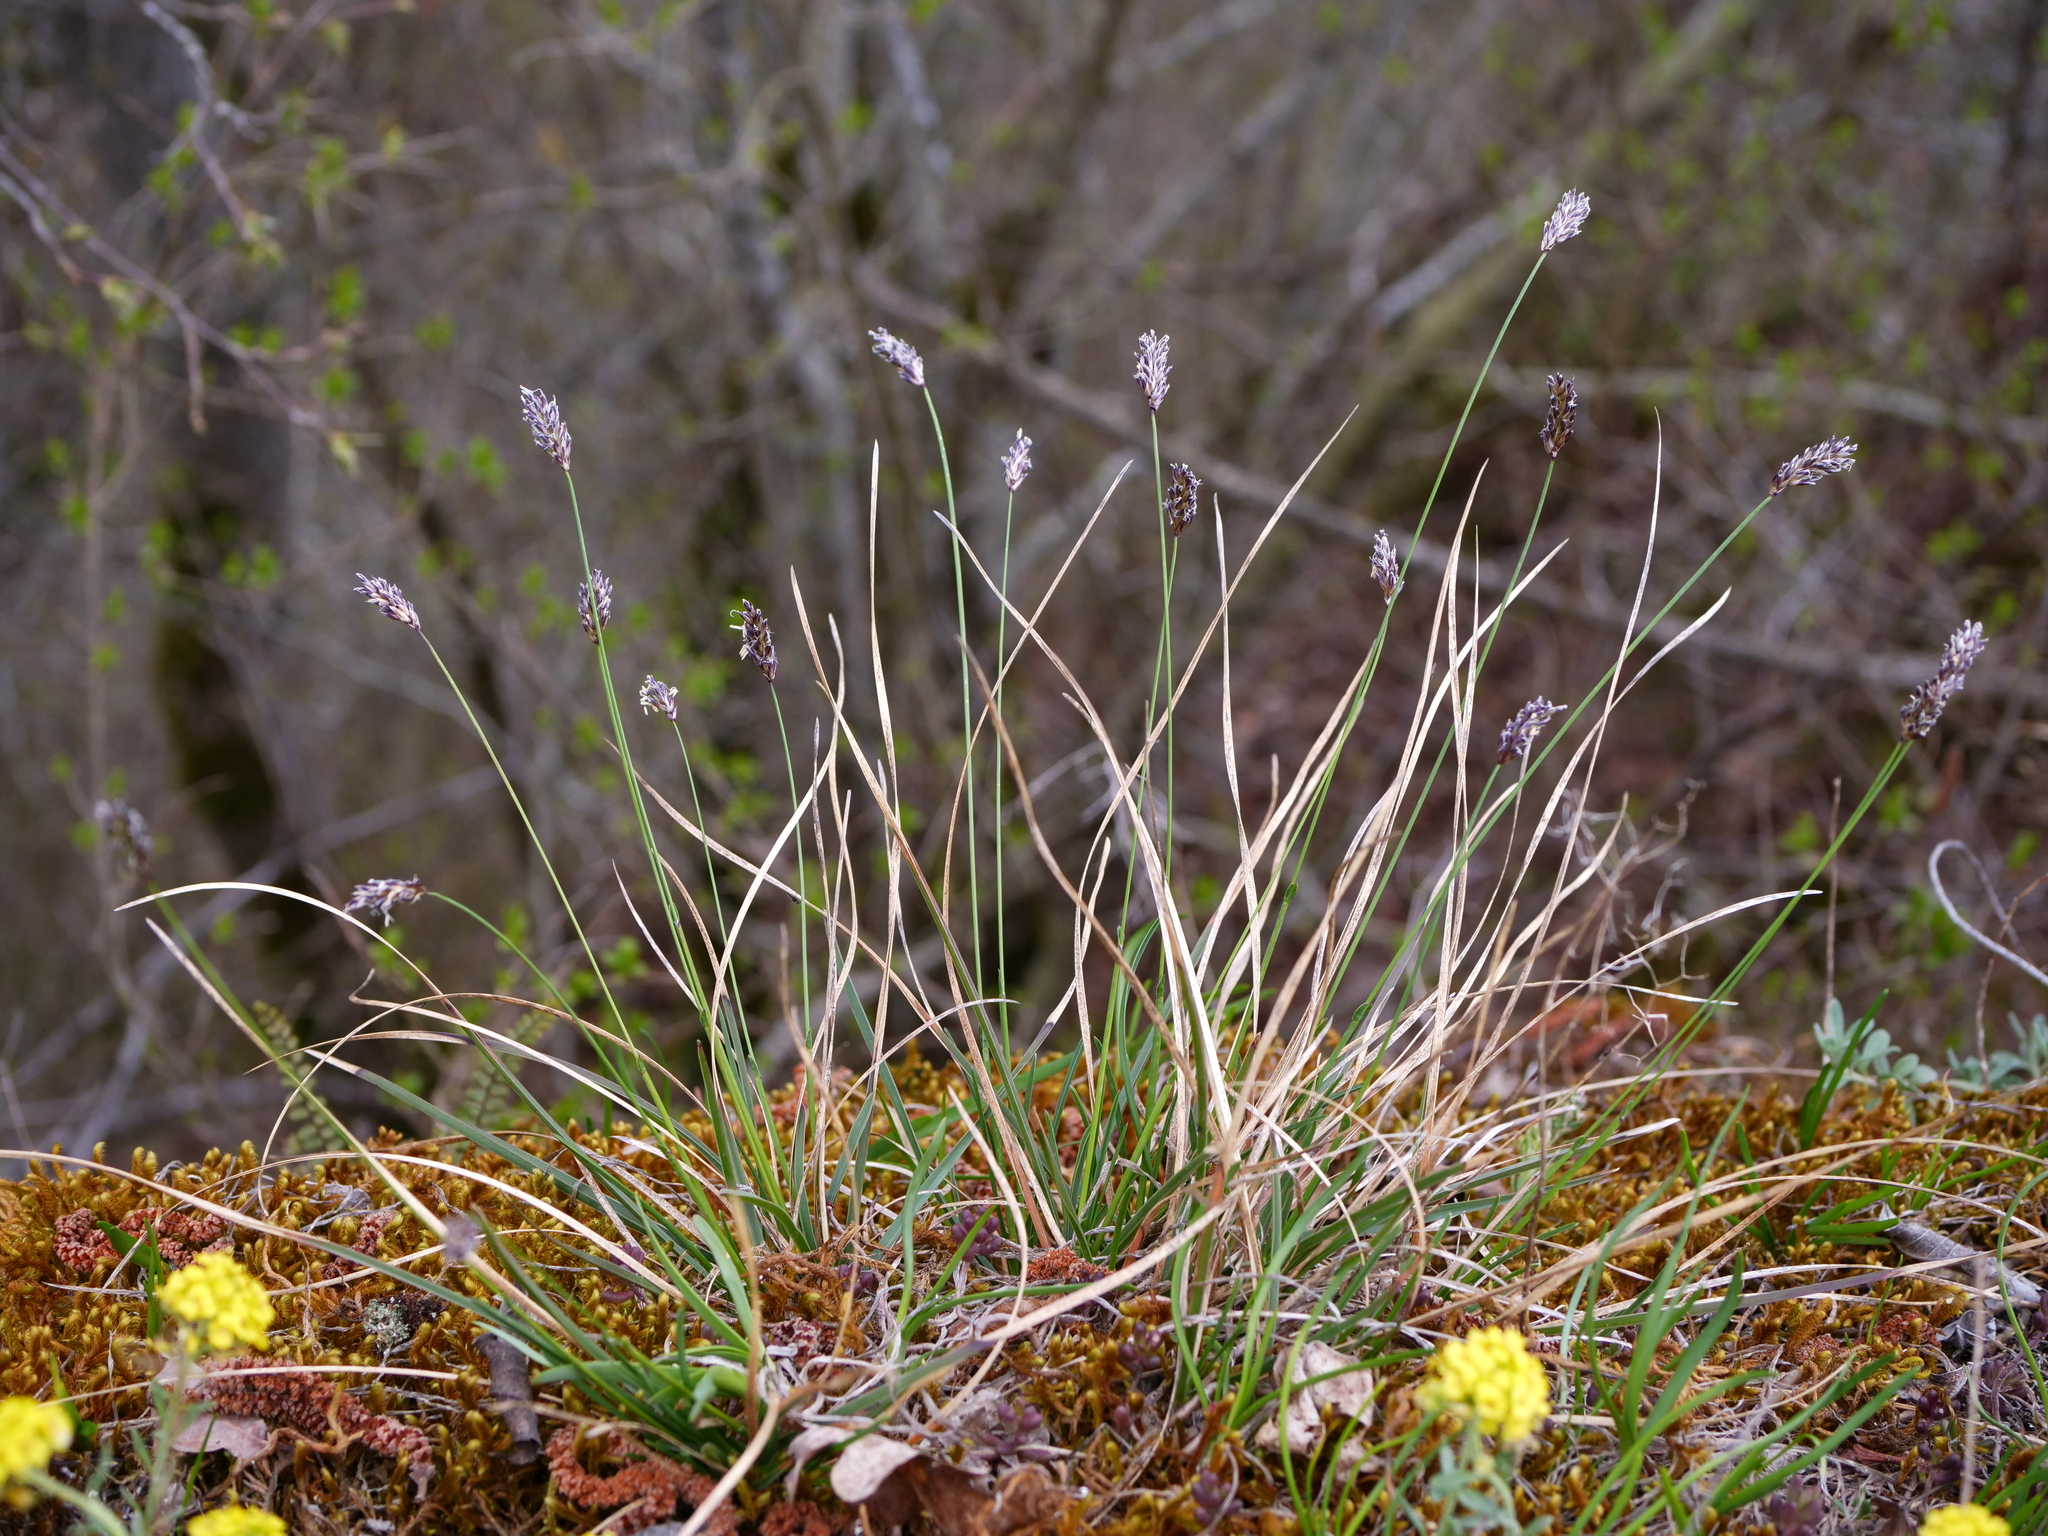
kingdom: Plantae
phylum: Tracheophyta
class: Liliopsida
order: Poales
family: Poaceae
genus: Sesleria
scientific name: Sesleria caerulea
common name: Blue moor-grass
